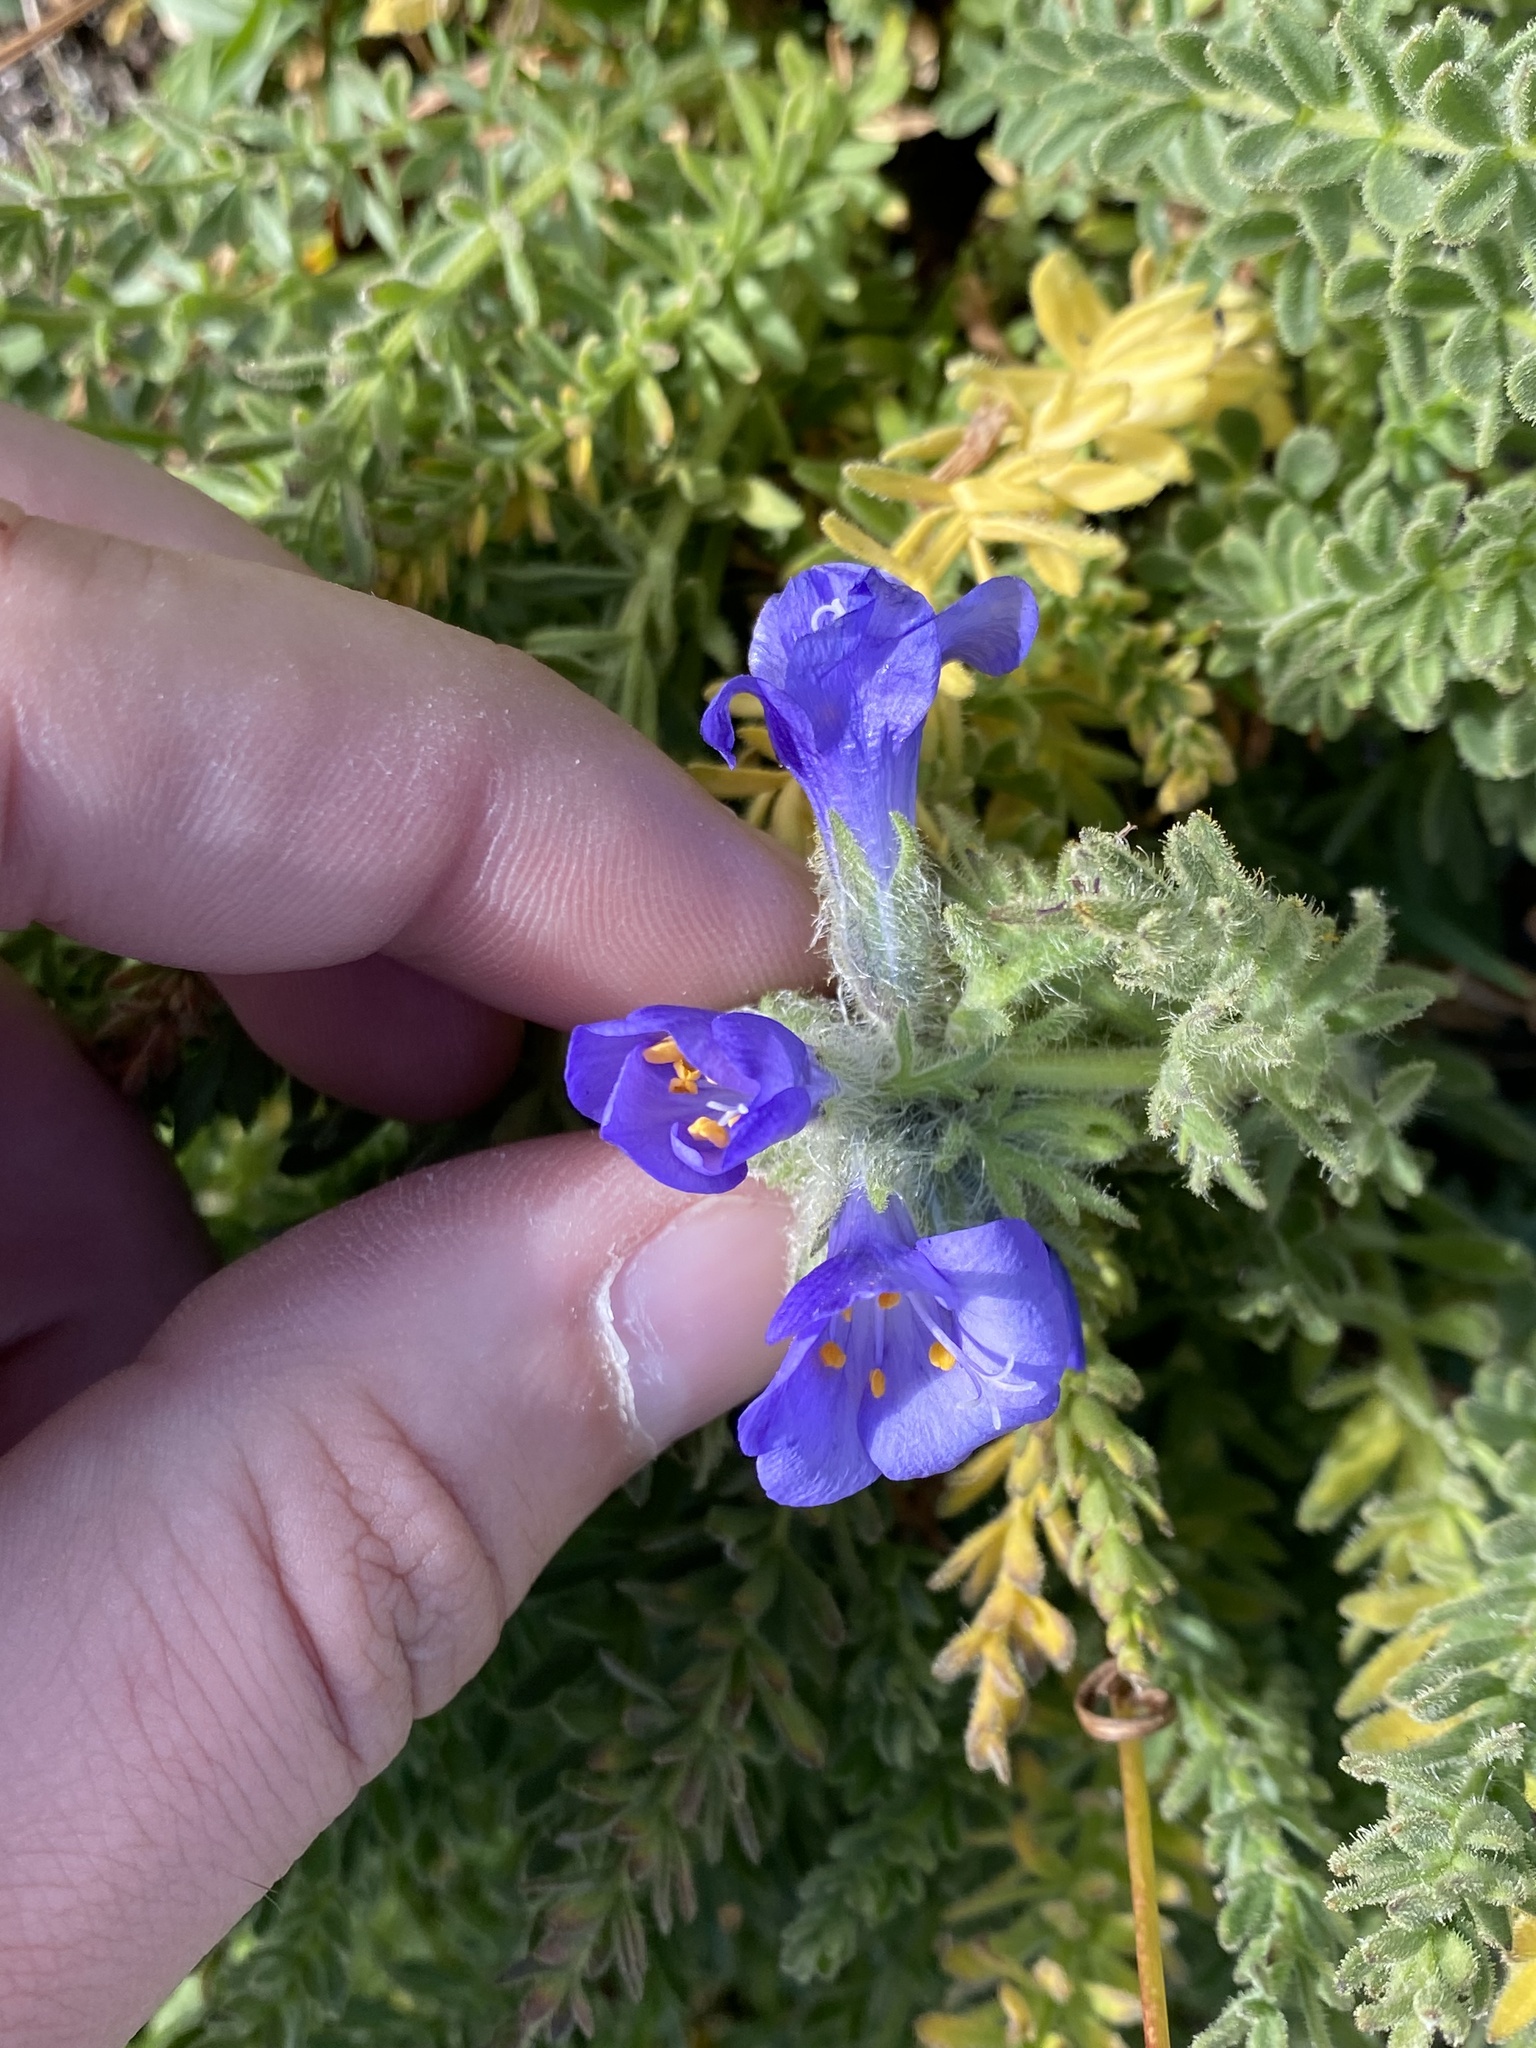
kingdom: Plantae
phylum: Tracheophyta
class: Magnoliopsida
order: Ericales
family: Polemoniaceae
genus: Polemonium
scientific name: Polemonium viscosum
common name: Skunk jacob's-ladder
